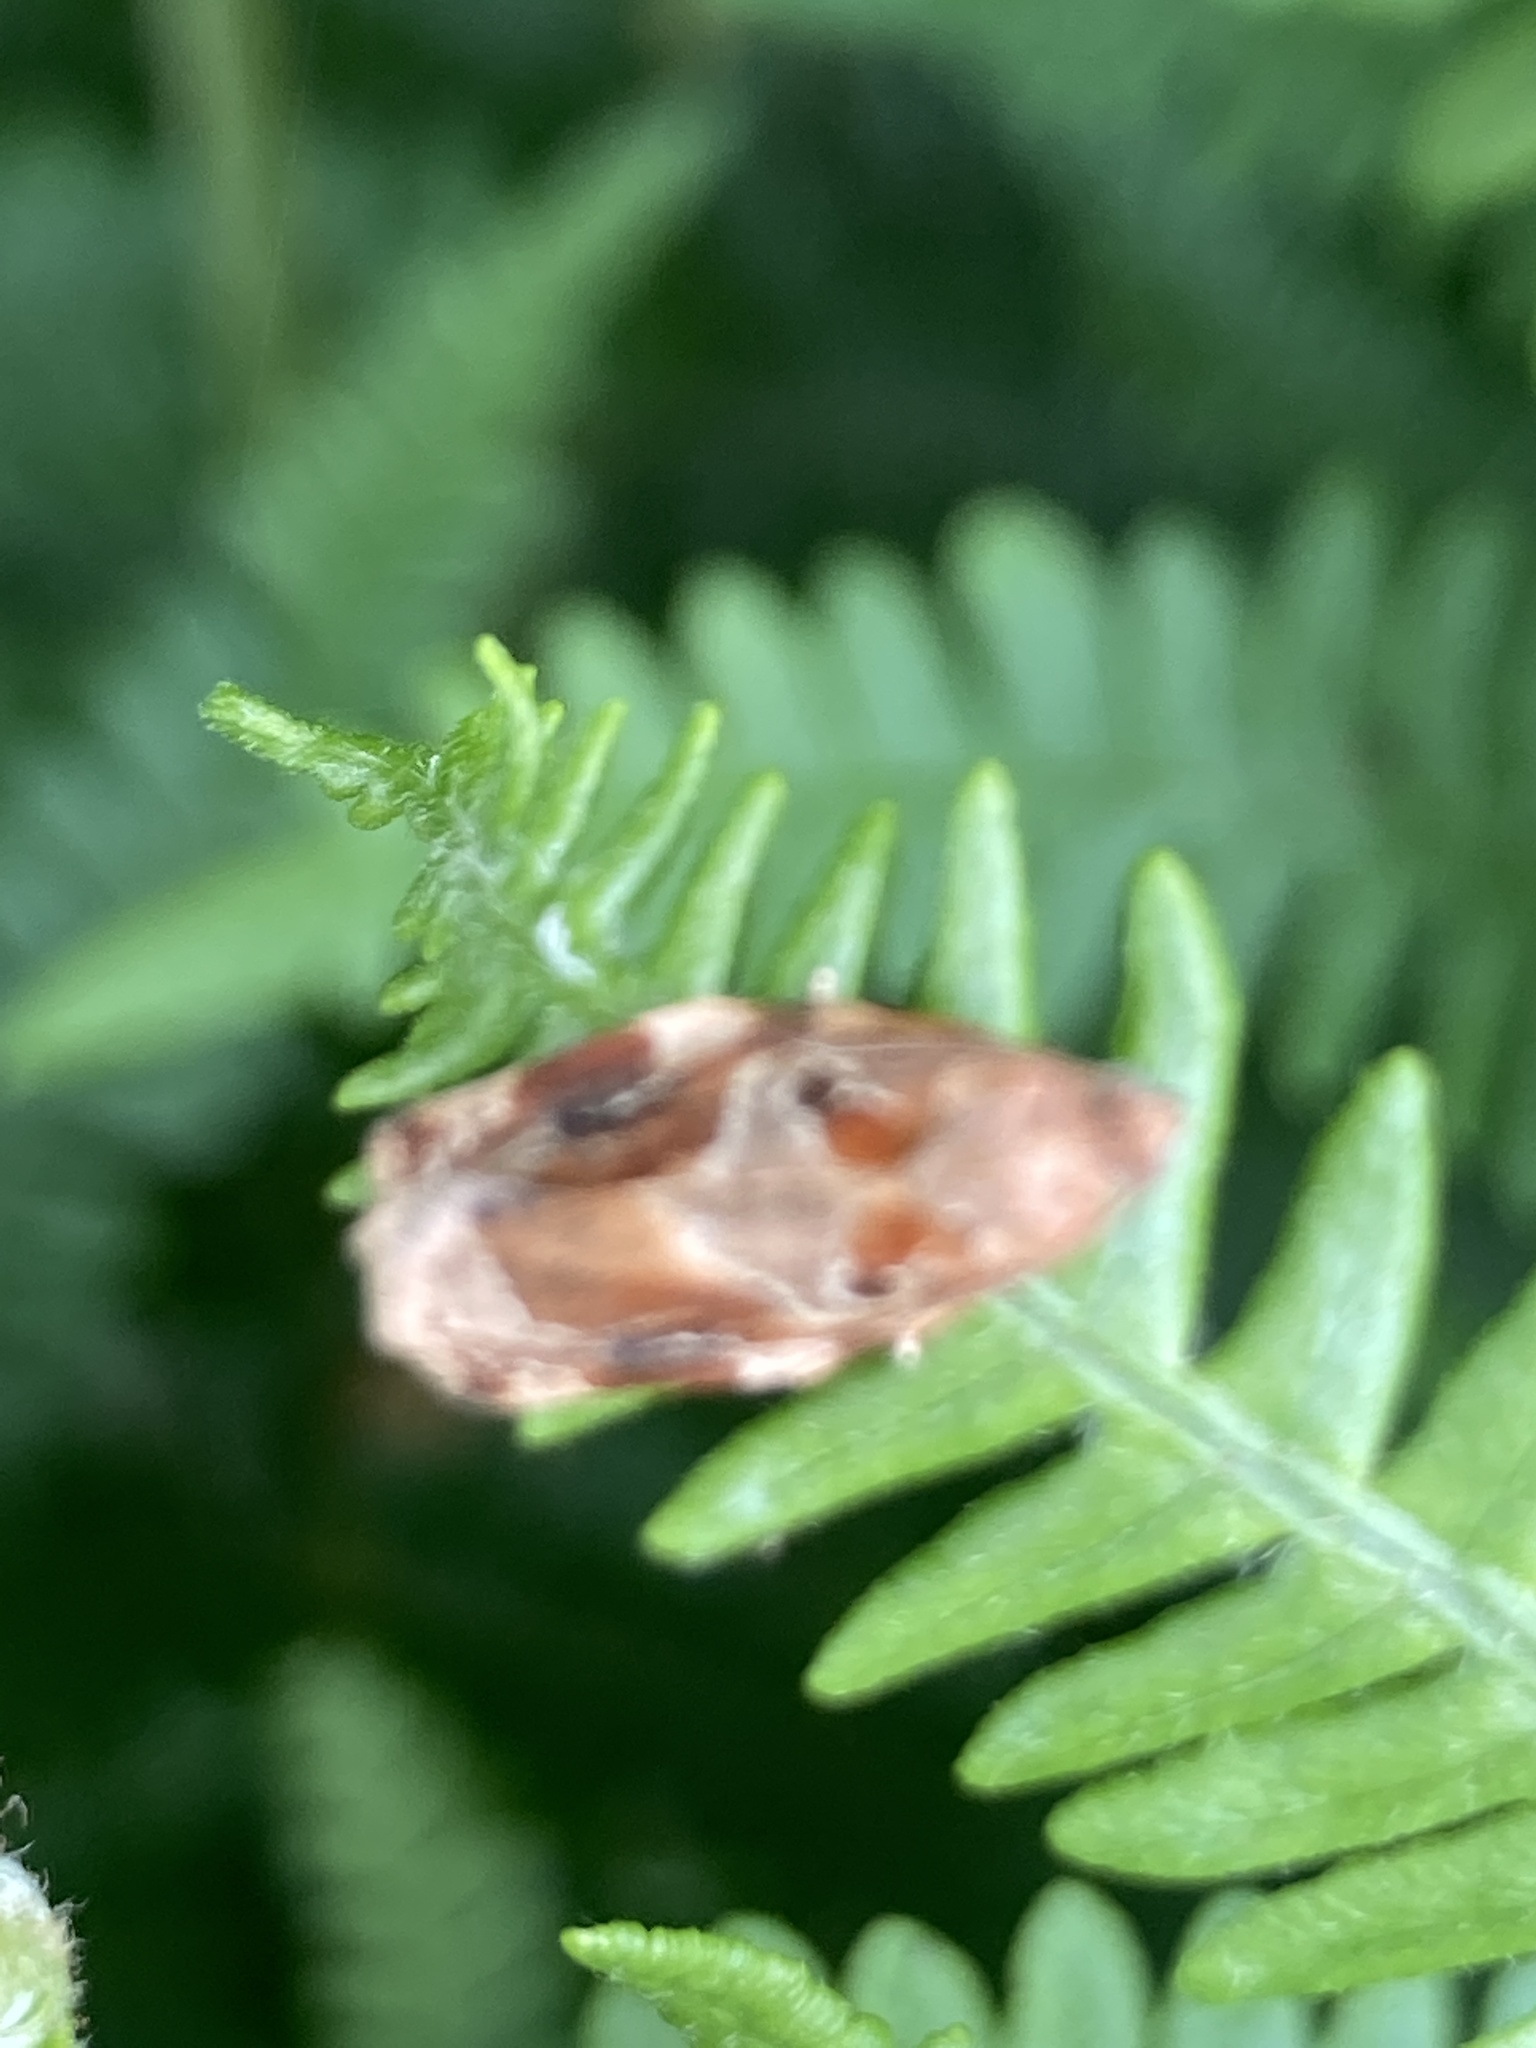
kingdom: Animalia
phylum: Arthropoda
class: Insecta
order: Lepidoptera
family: Tortricidae
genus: Archips
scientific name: Archips xylosteana
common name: Variegated golden tortrix
